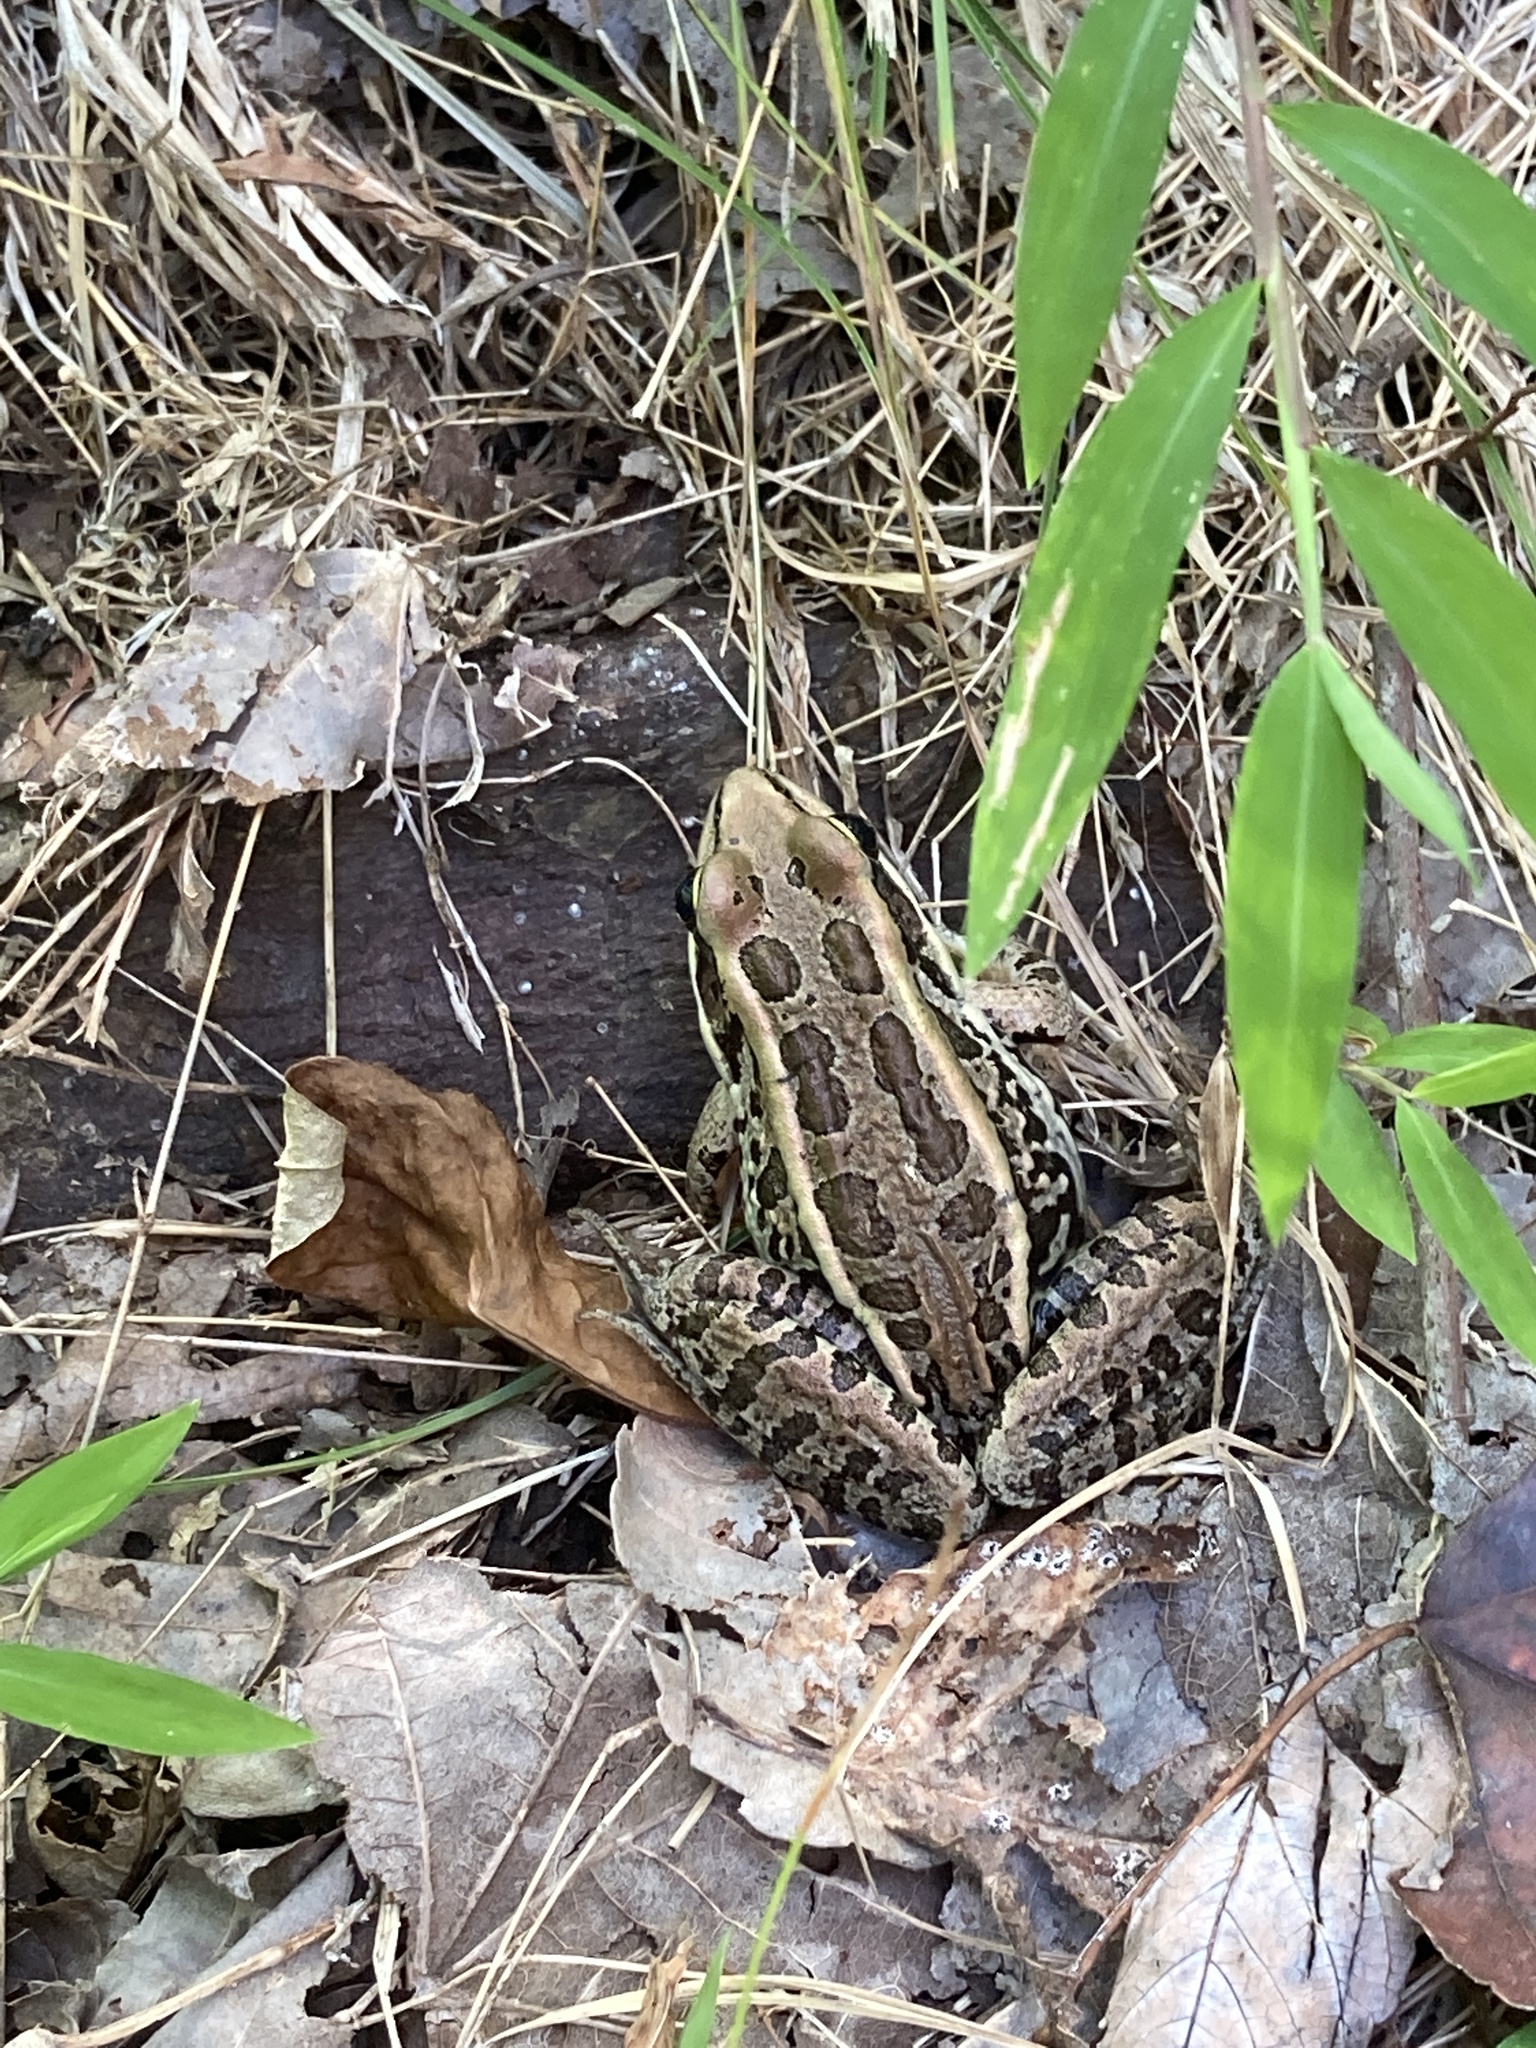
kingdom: Animalia
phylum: Chordata
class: Amphibia
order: Anura
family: Ranidae
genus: Lithobates
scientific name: Lithobates palustris
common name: Pickerel frog
